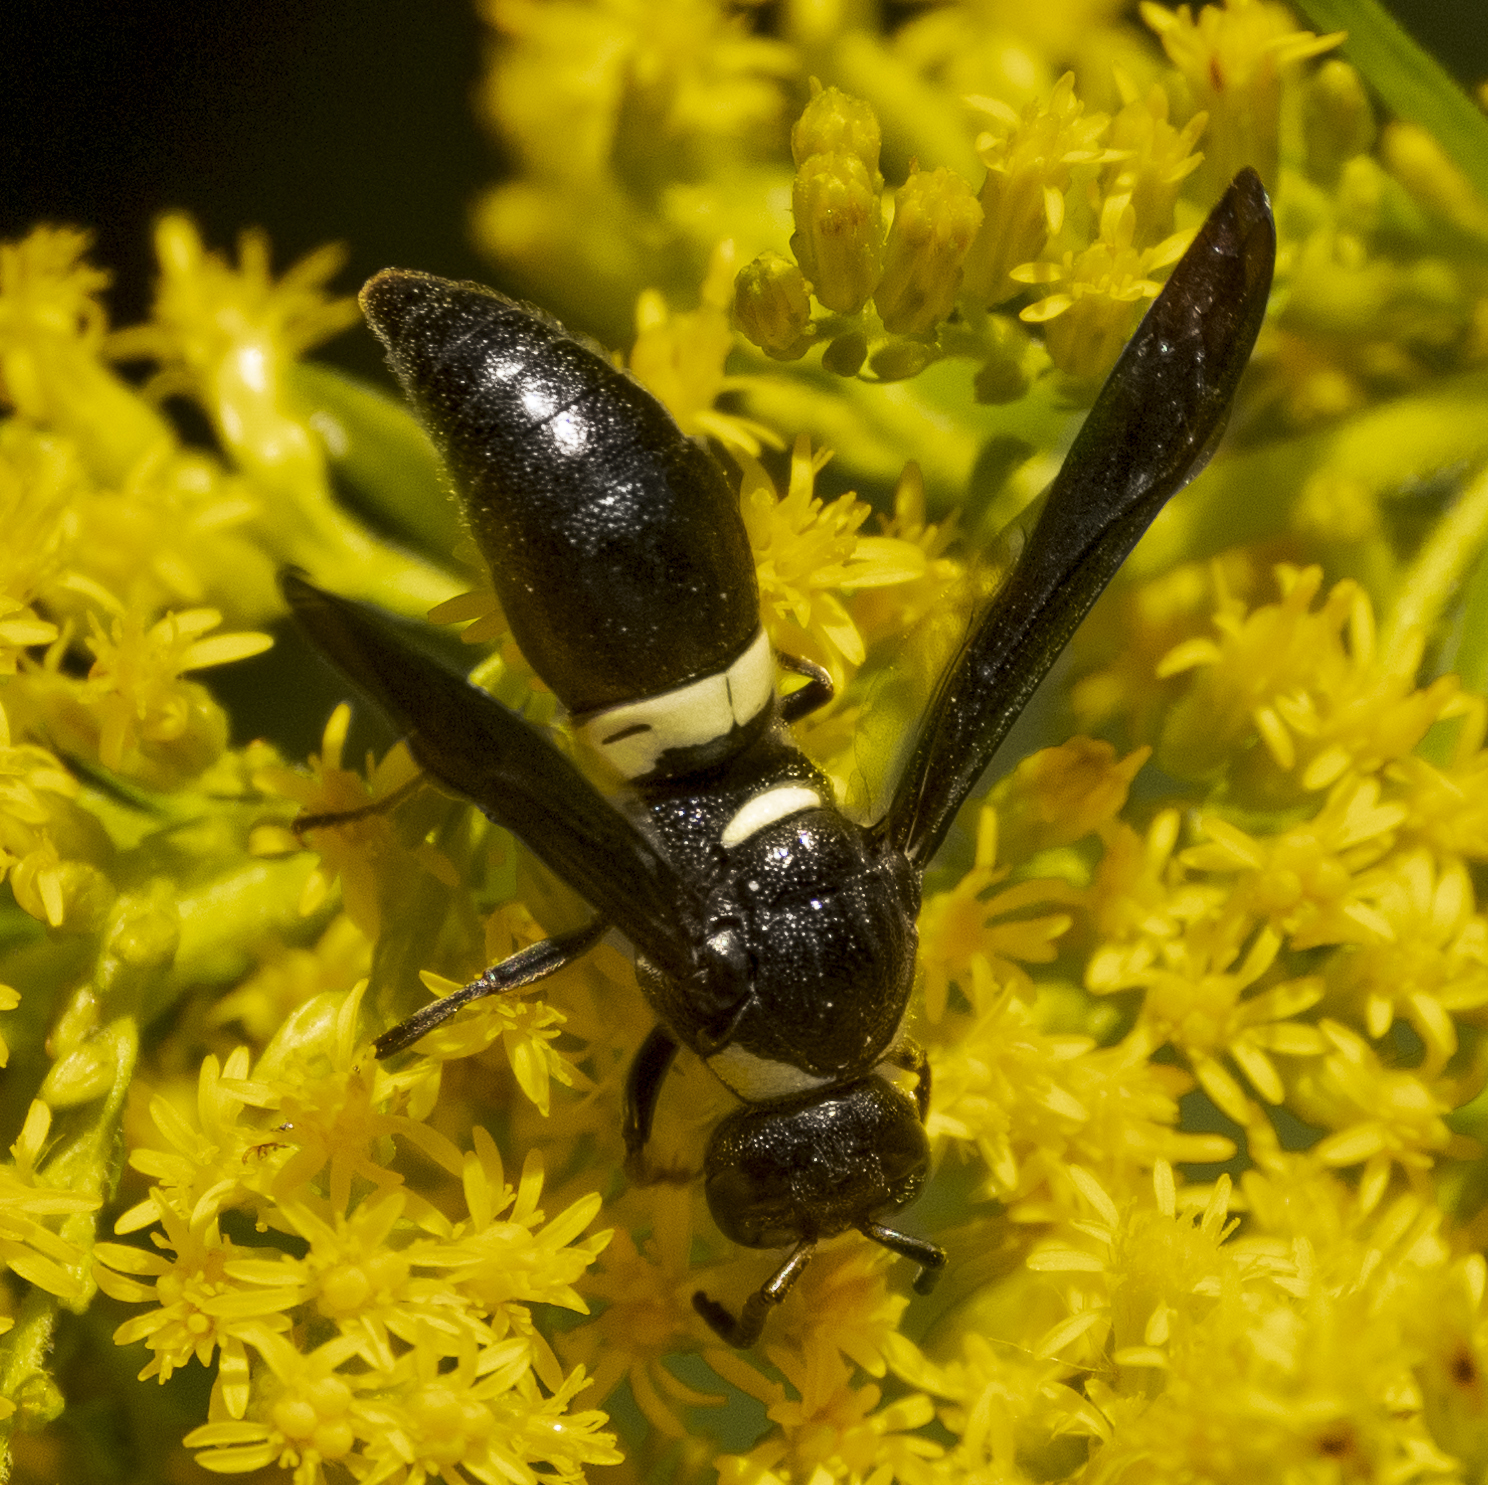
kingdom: Animalia
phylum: Arthropoda
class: Insecta
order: Hymenoptera
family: Eumenidae
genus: Monobia
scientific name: Monobia quadridens
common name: Four-toothed mason wasp
